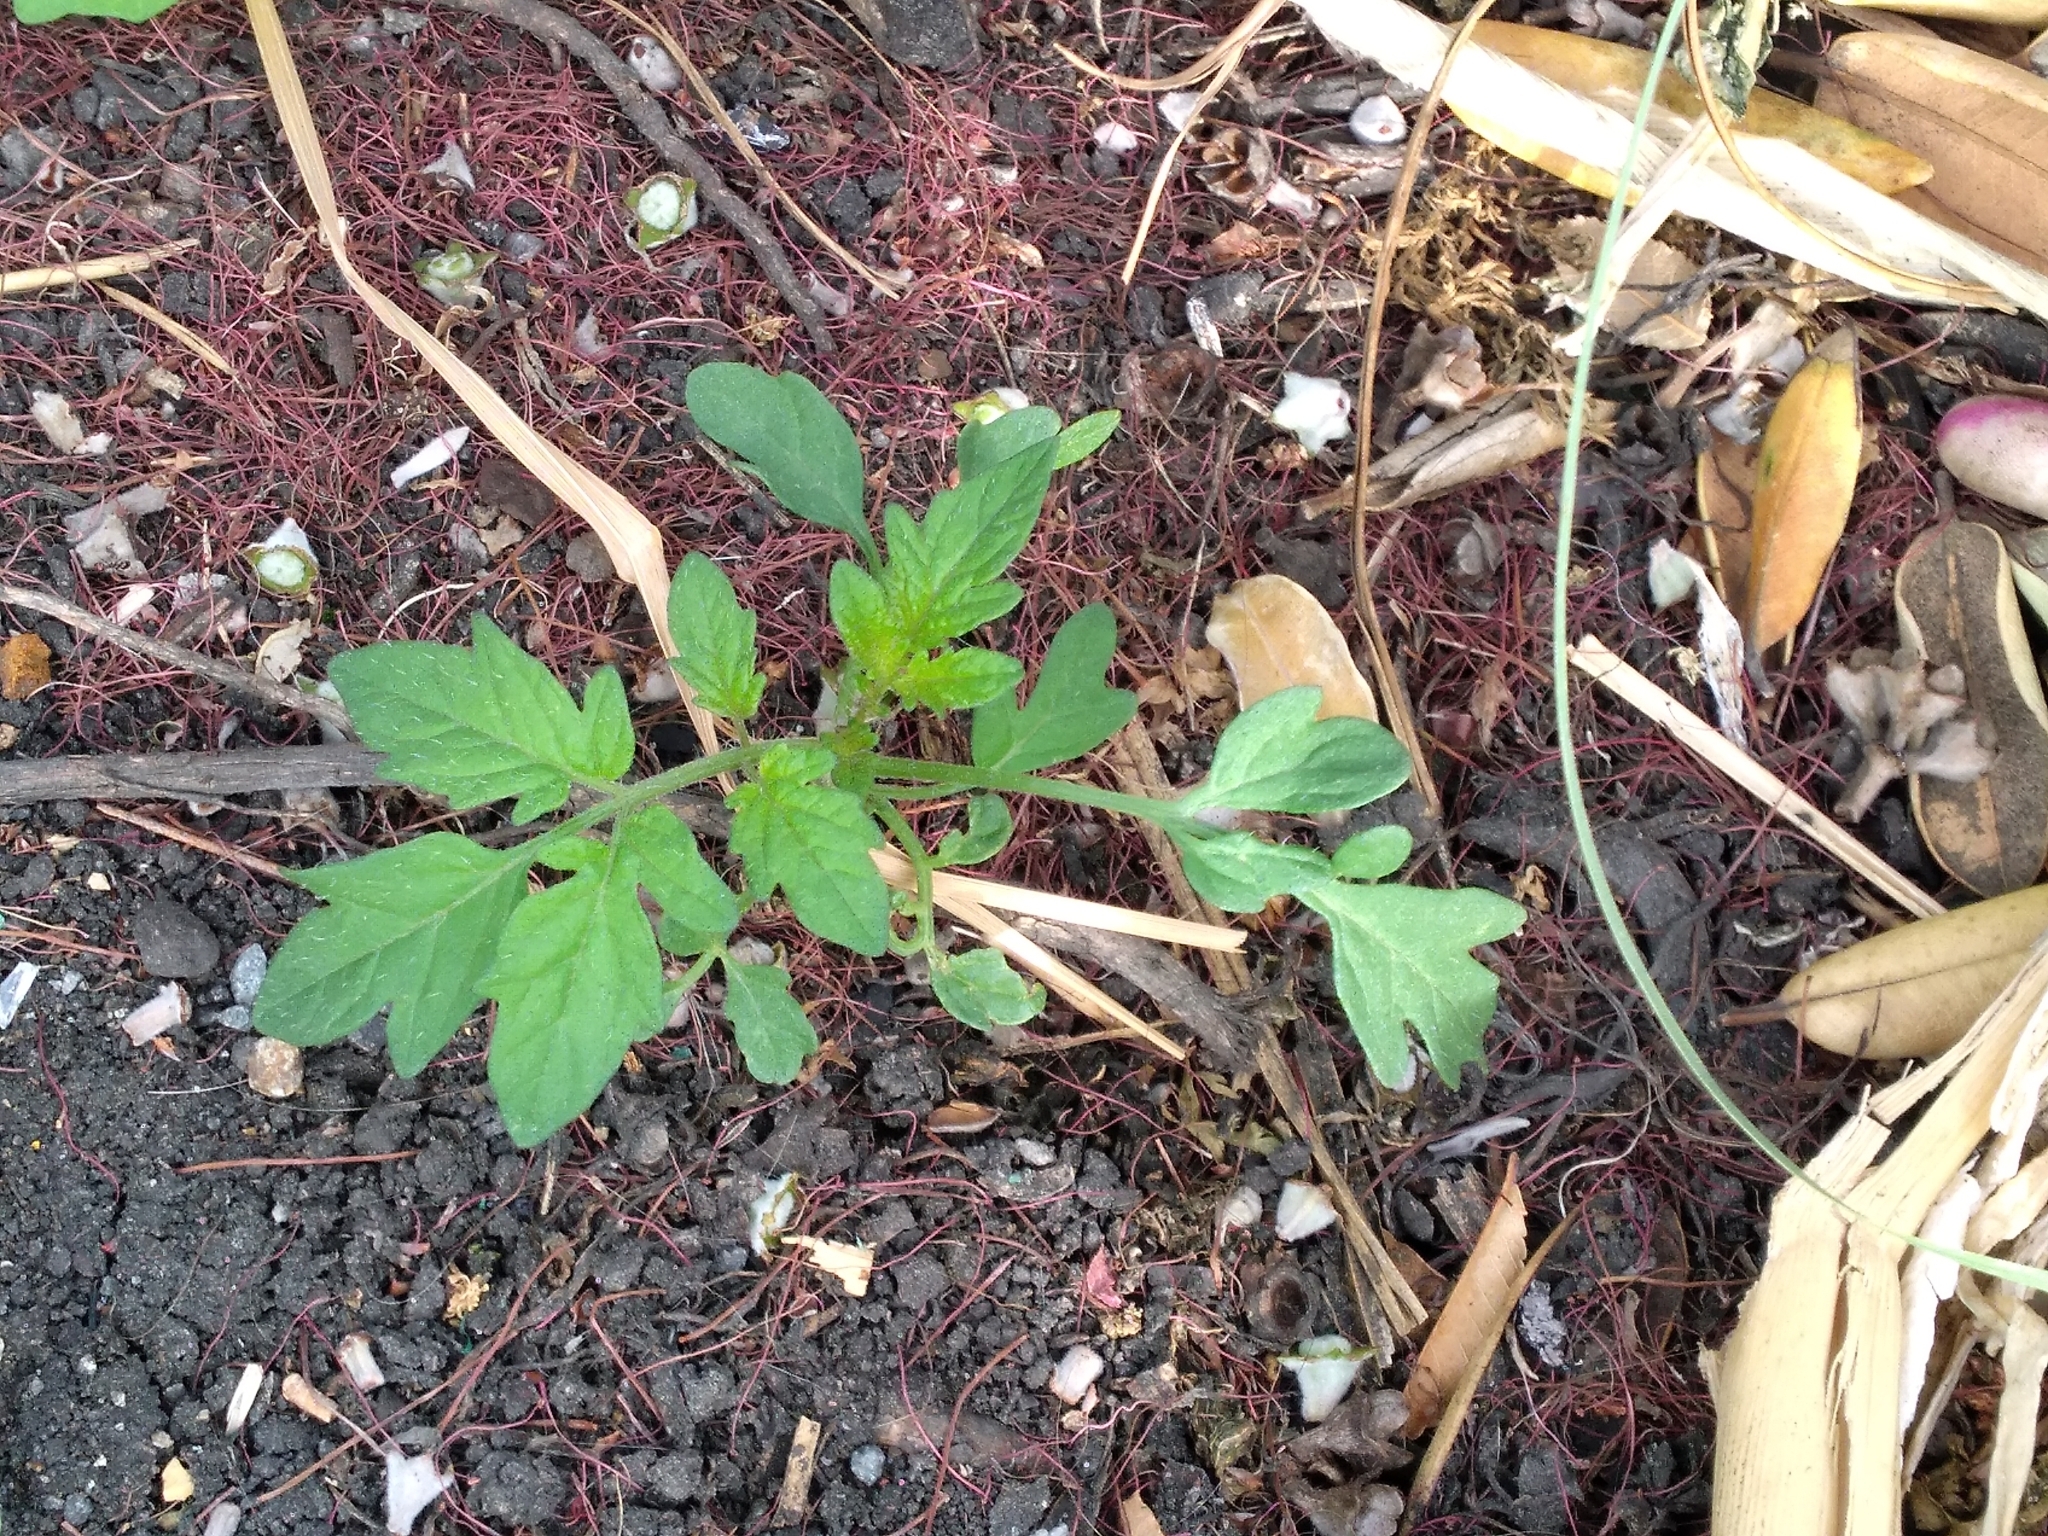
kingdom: Plantae
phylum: Tracheophyta
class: Magnoliopsida
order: Solanales
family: Solanaceae
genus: Solanum
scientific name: Solanum lycopersicum
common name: Garden tomato
